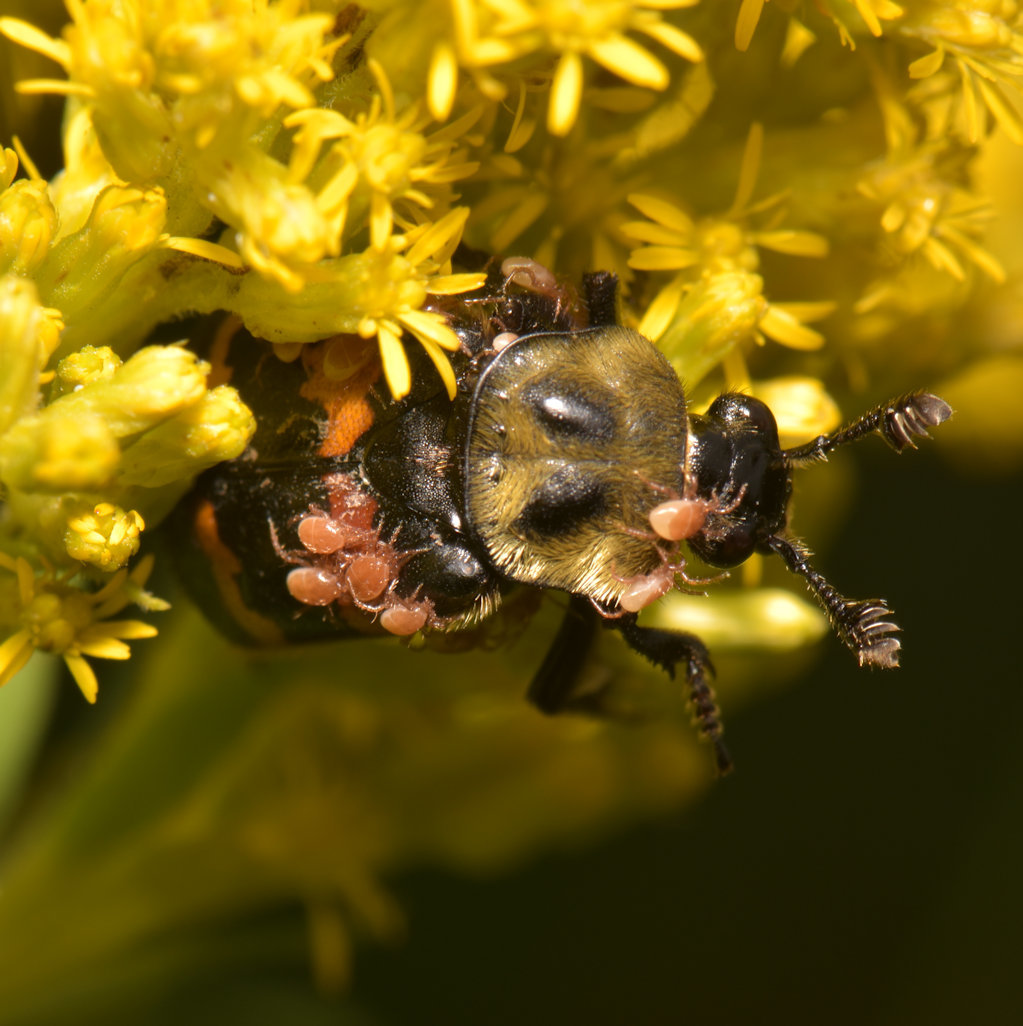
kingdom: Animalia
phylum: Arthropoda
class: Insecta
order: Coleoptera
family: Staphylinidae
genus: Nicrophorus
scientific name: Nicrophorus tomentosus
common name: Tomentose burying beetle
